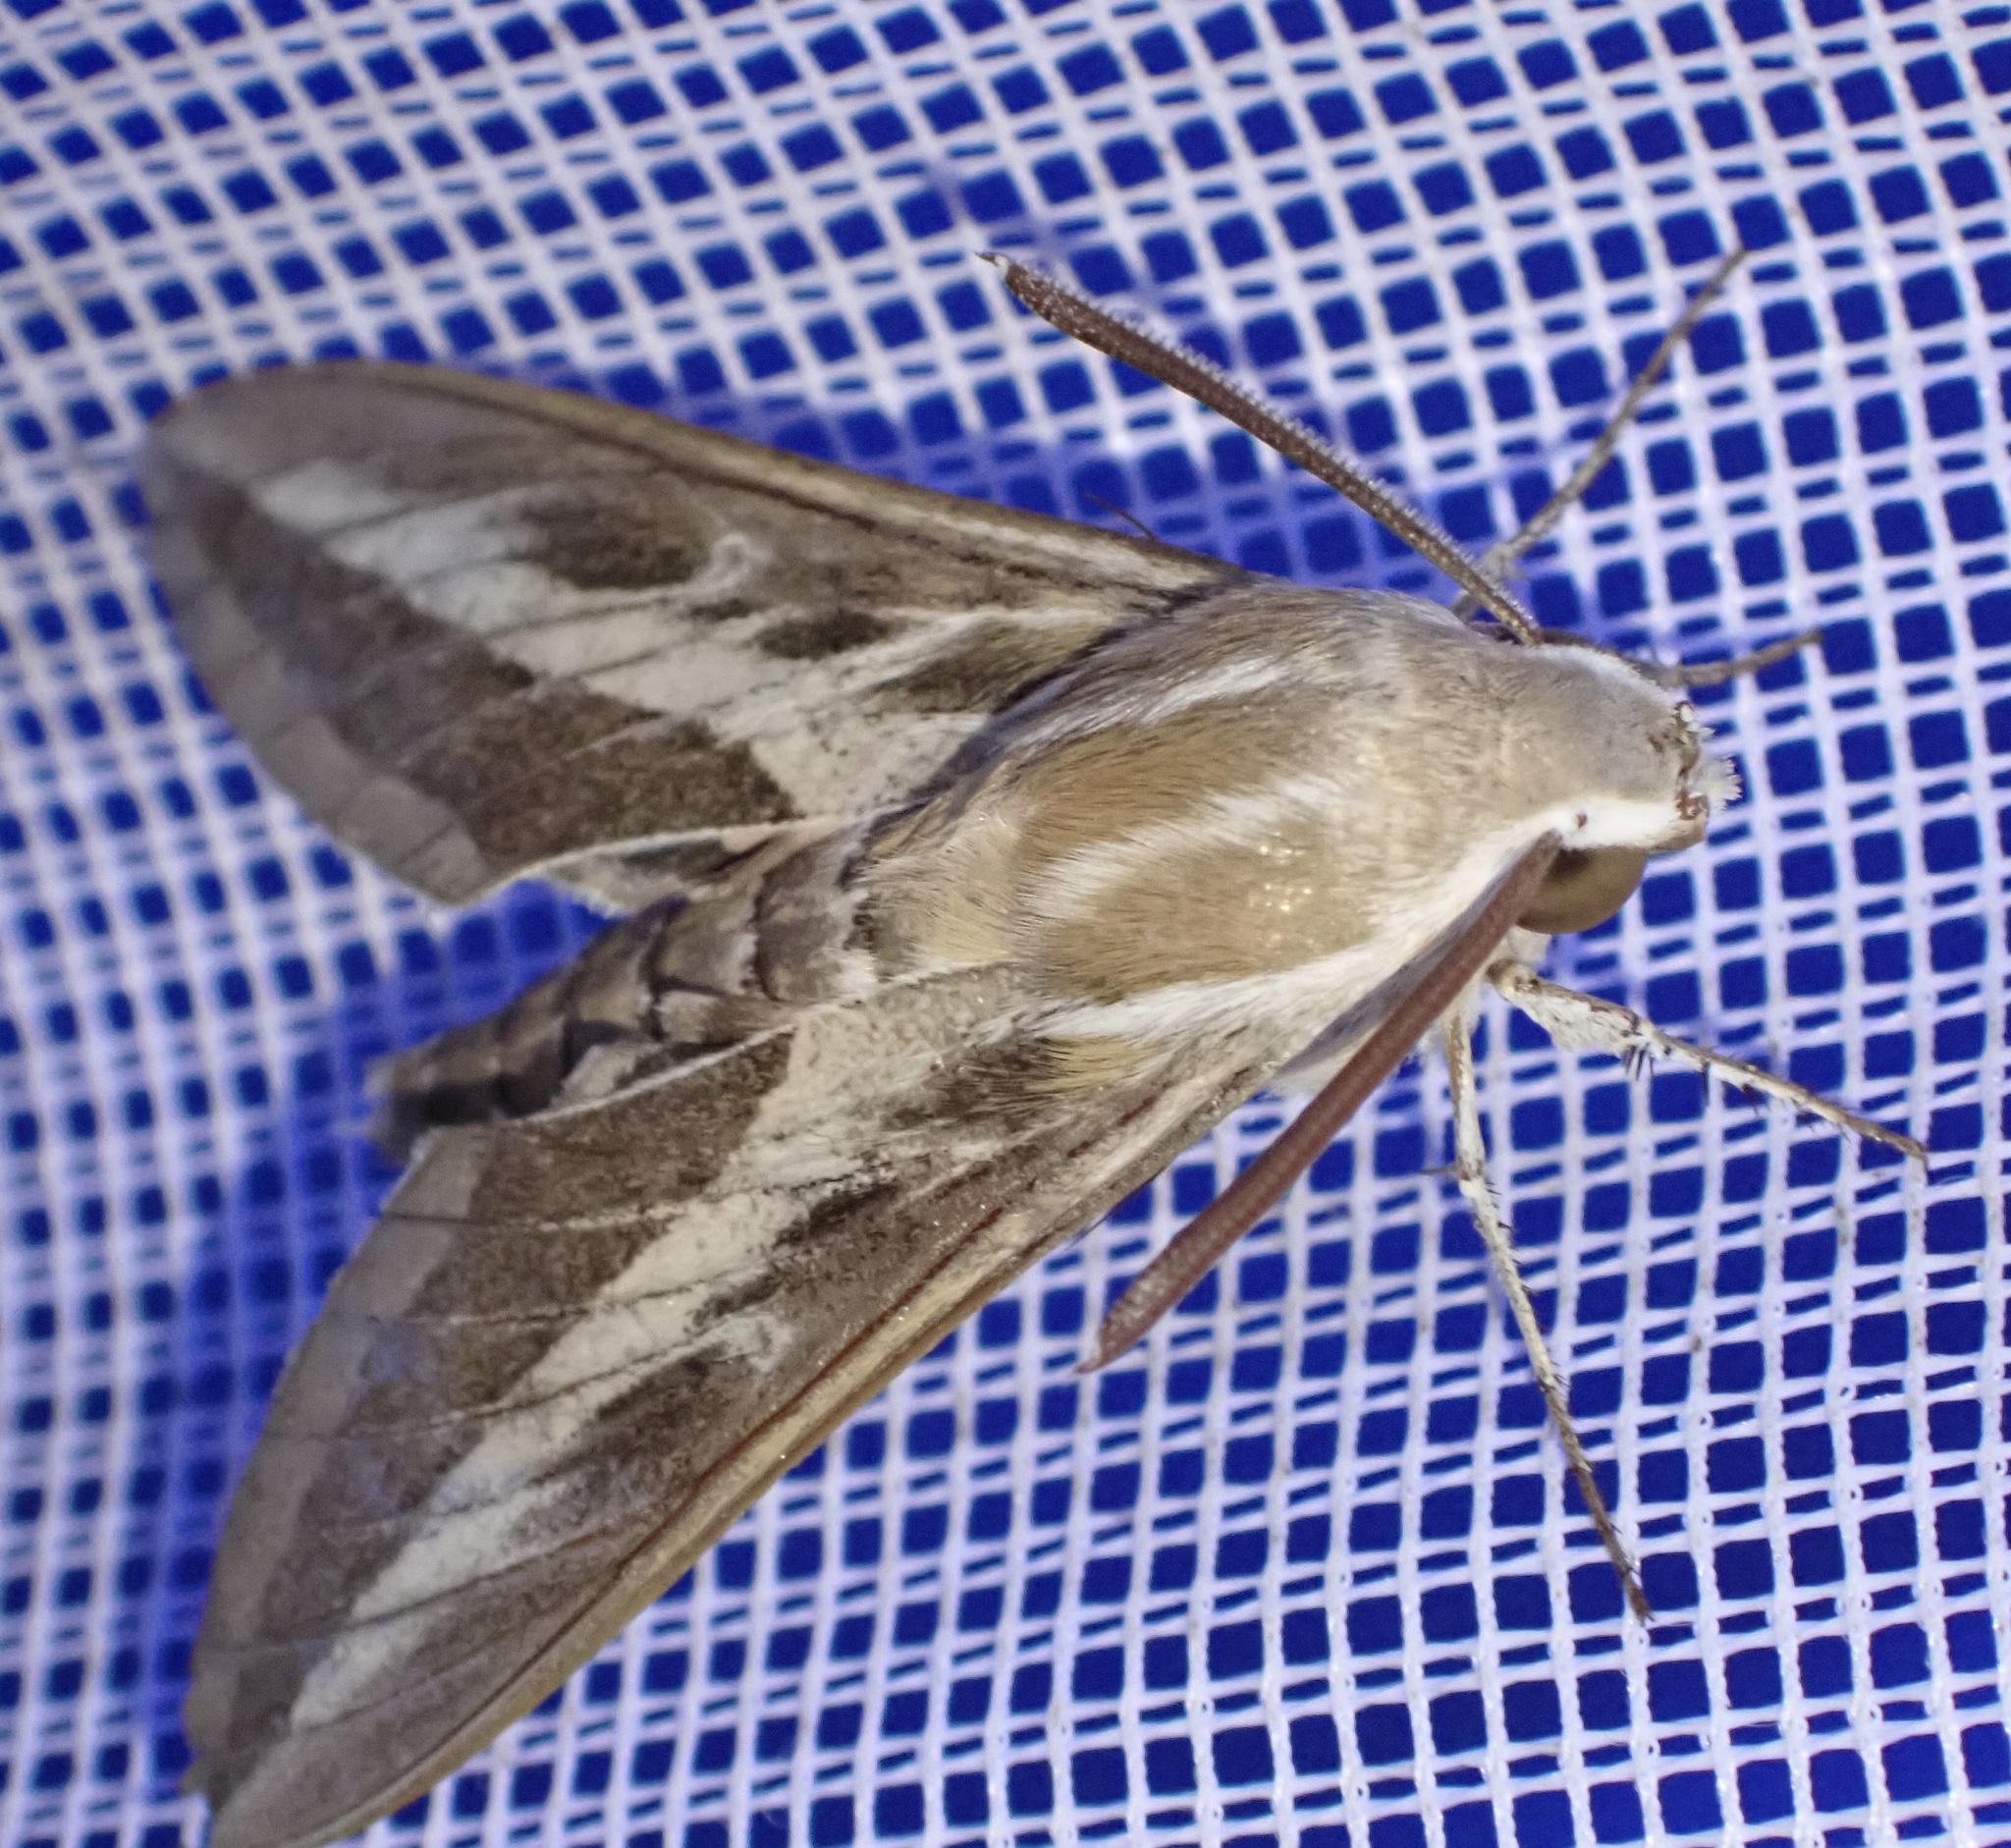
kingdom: Animalia
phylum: Arthropoda
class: Insecta
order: Lepidoptera
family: Sphingidae
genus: Hyles
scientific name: Hyles livornica
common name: Striped hawk-moth
